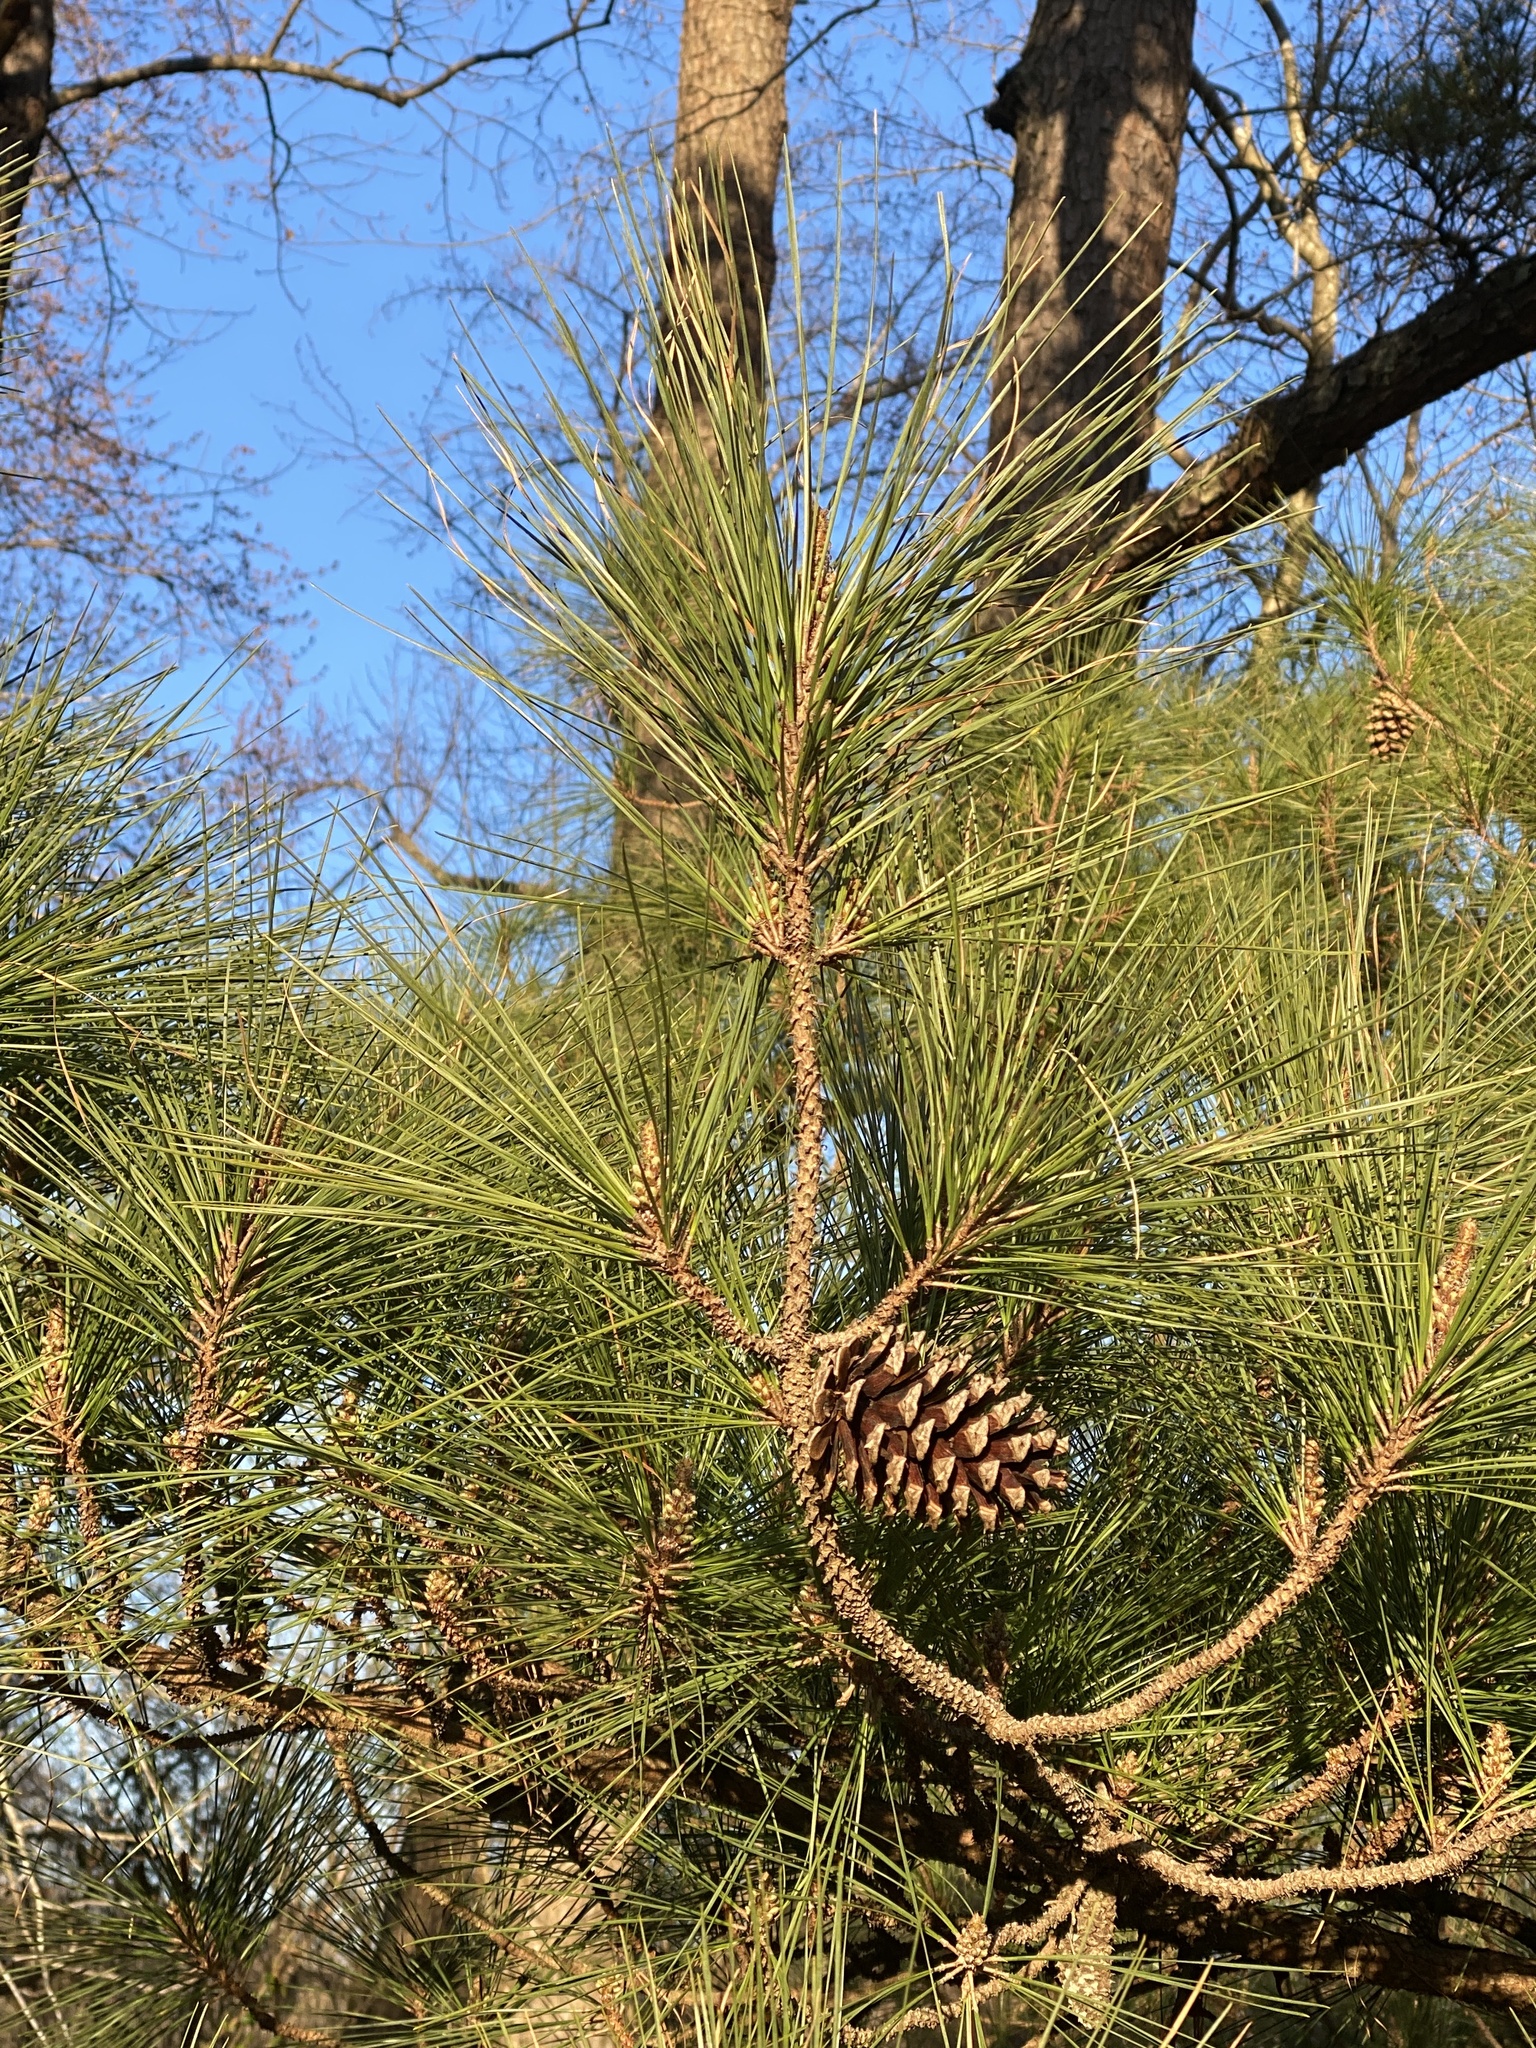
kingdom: Plantae
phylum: Tracheophyta
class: Pinopsida
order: Pinales
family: Pinaceae
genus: Pinus
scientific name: Pinus taeda
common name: Loblolly pine
